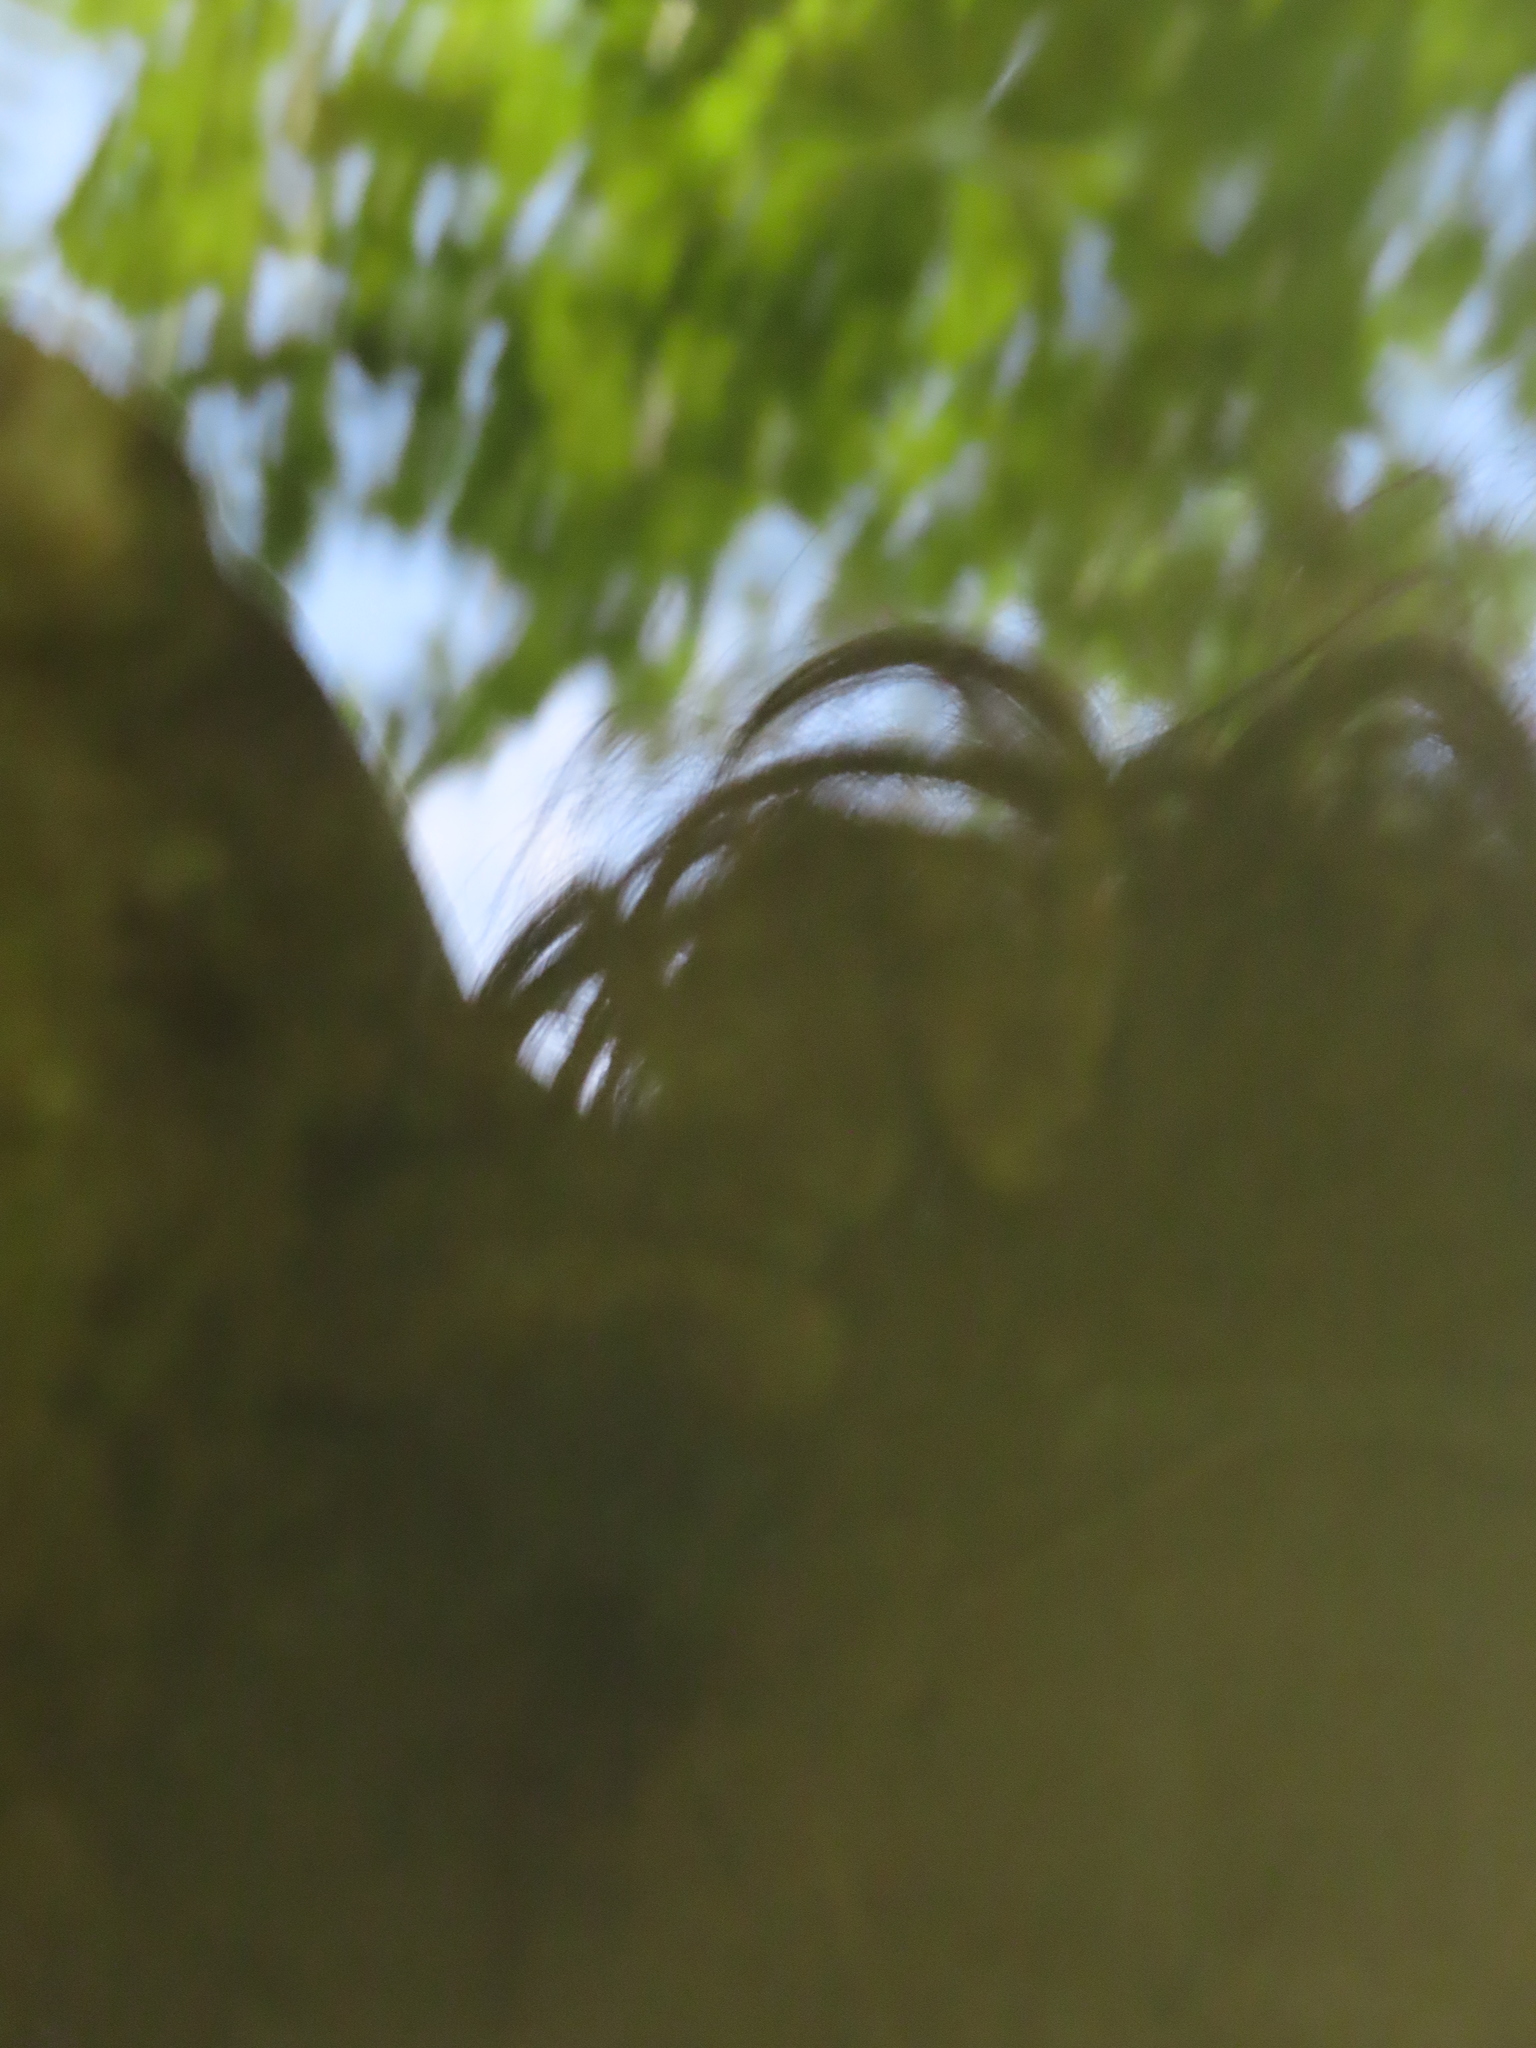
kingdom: Animalia
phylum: Chordata
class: Amphibia
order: Anura
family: Ranidae
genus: Lithobates
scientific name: Lithobates clamitans
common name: Green frog
